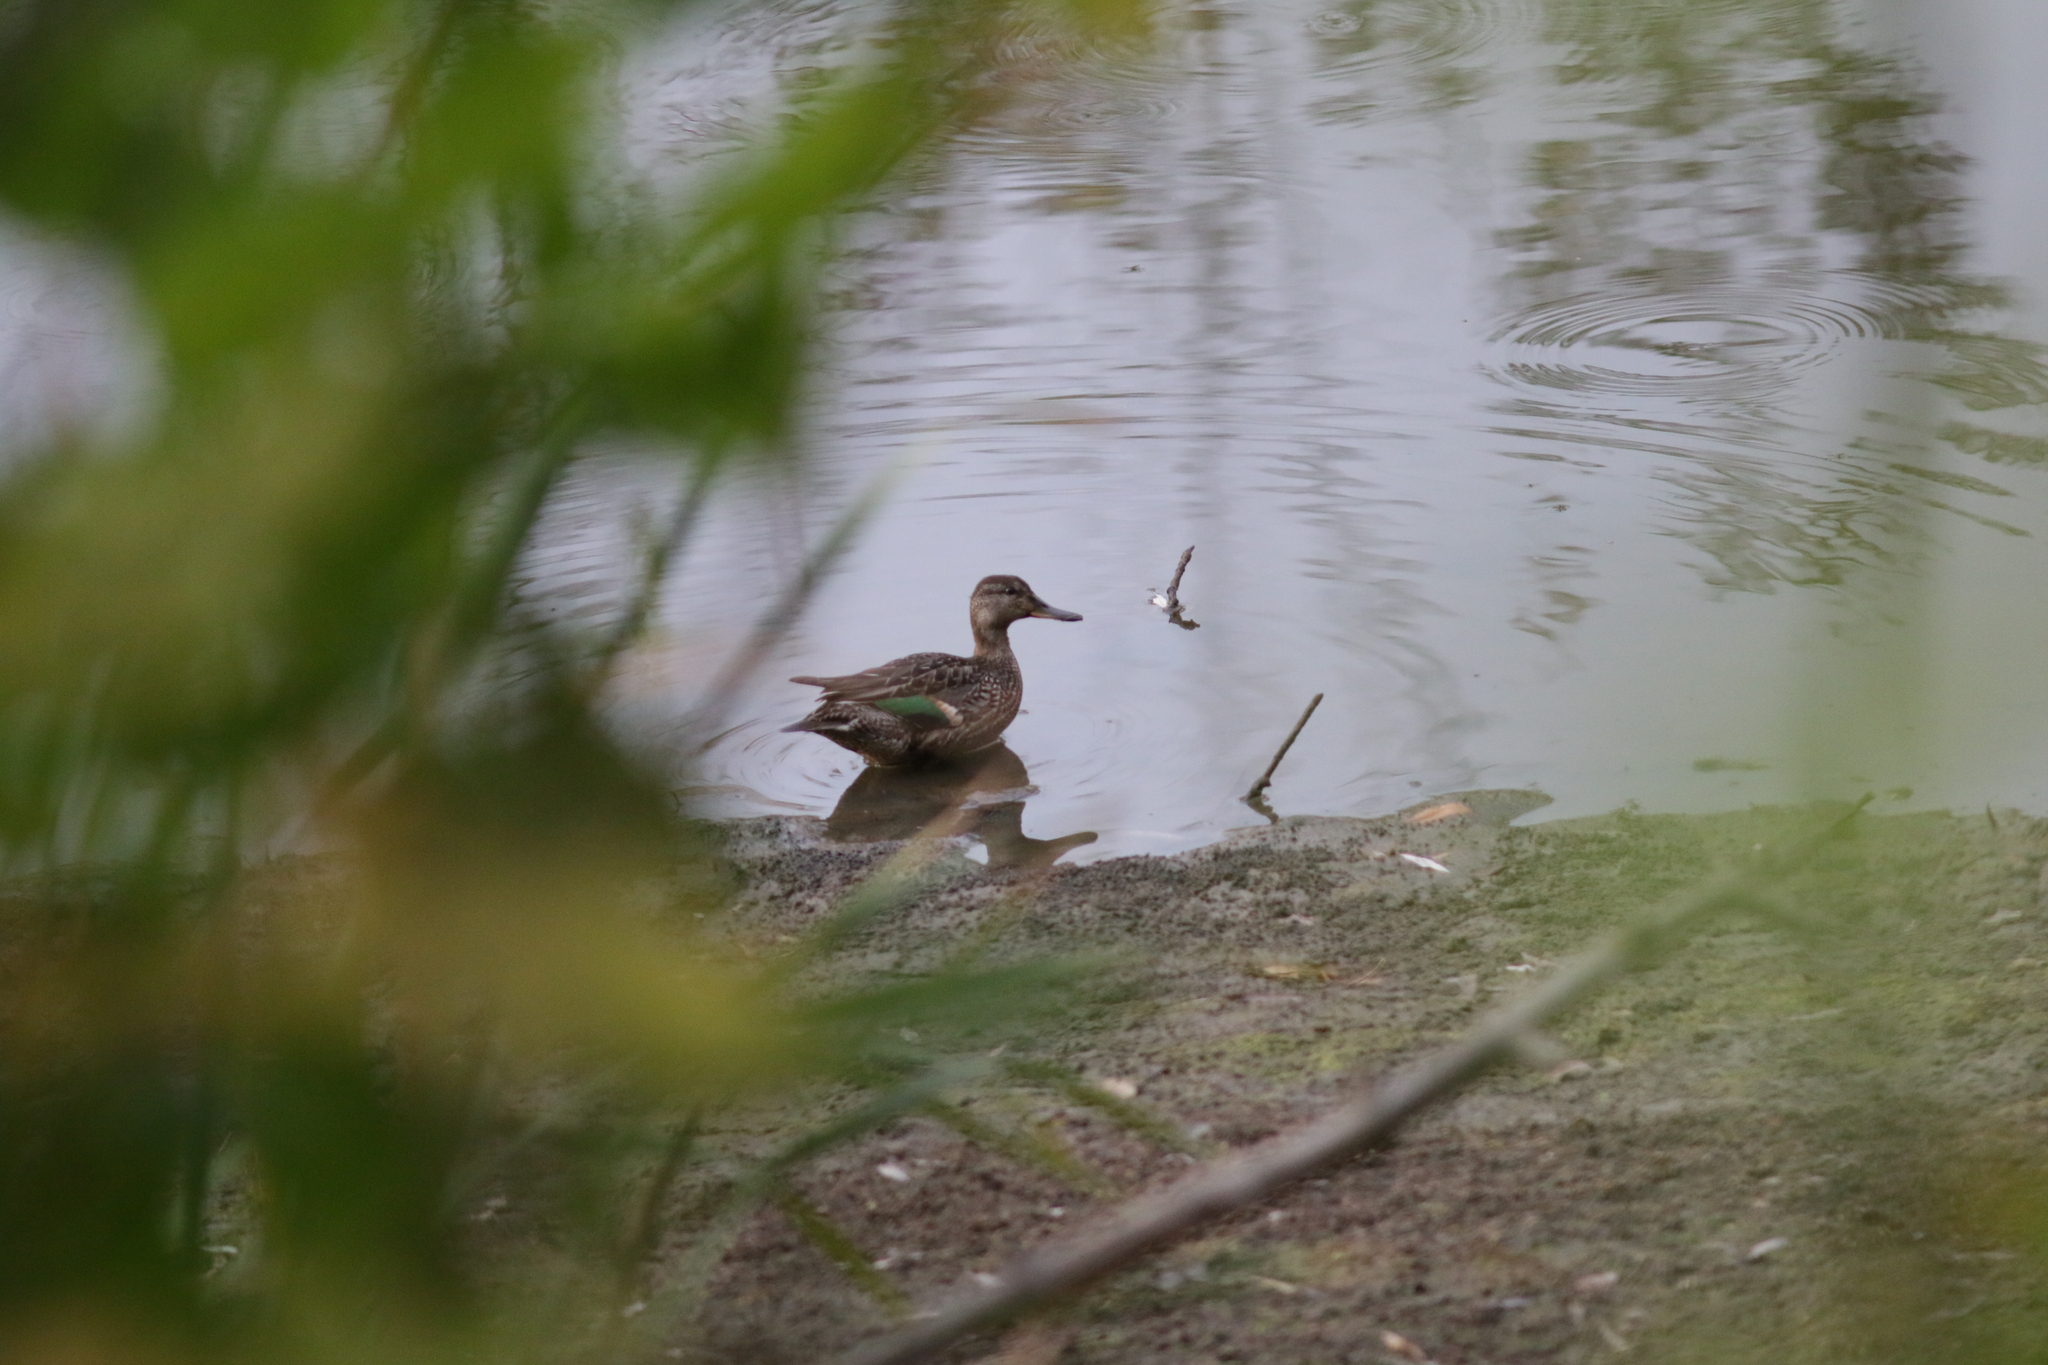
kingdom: Animalia
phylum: Chordata
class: Aves
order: Anseriformes
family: Anatidae
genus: Anas
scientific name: Anas crecca
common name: Eurasian teal
